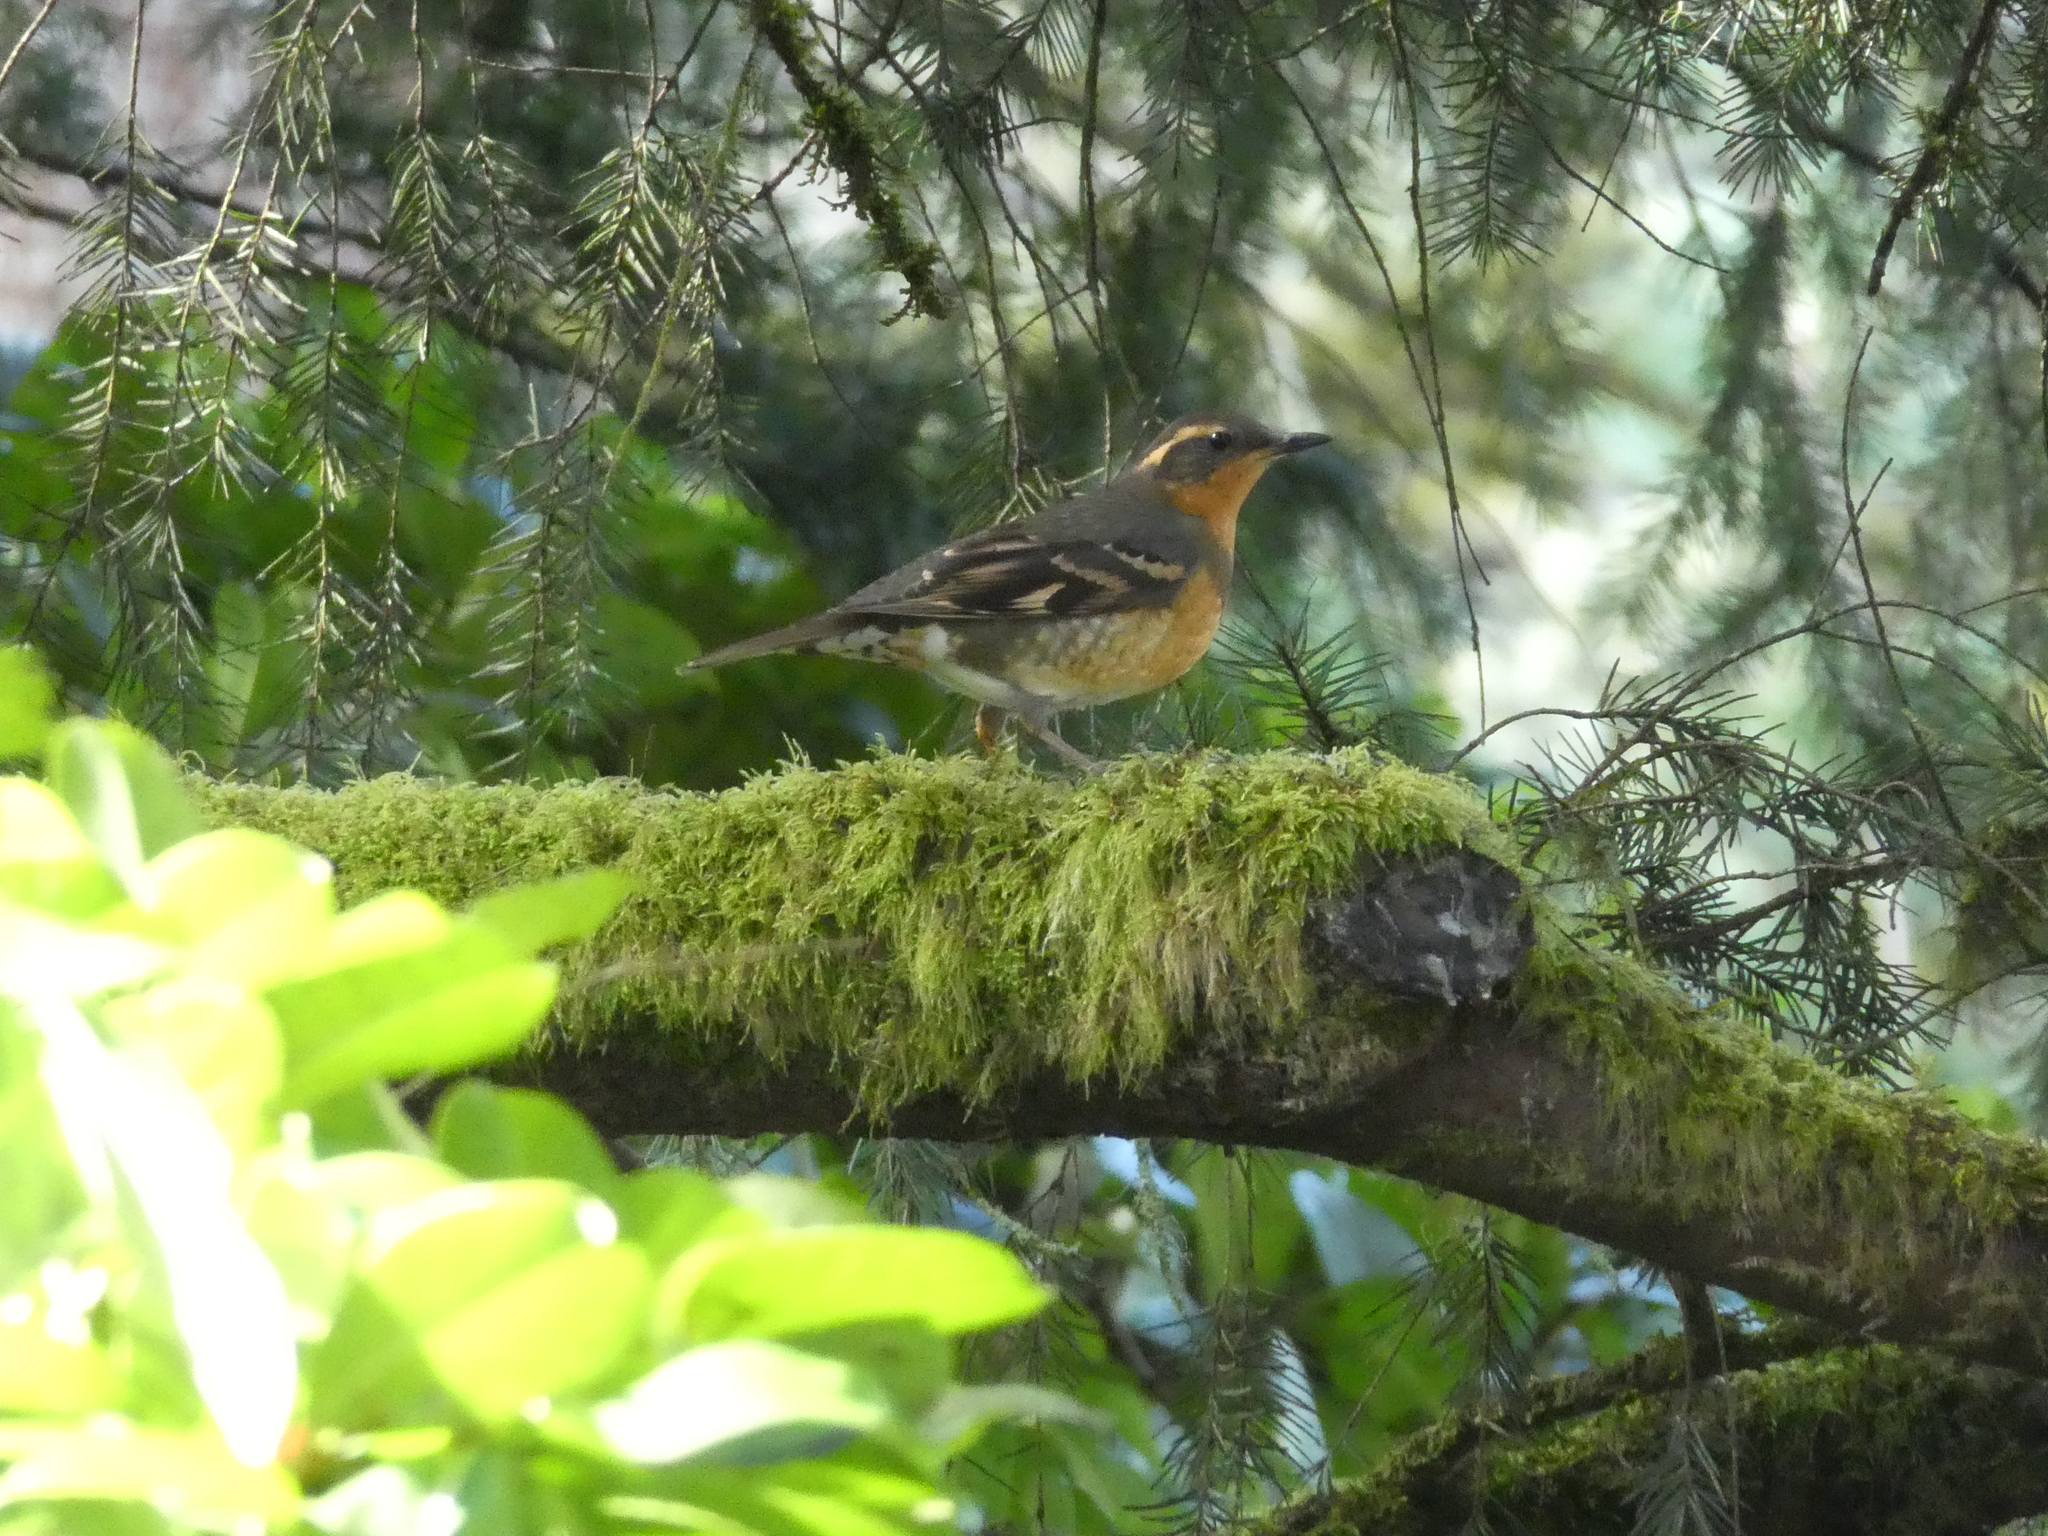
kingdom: Animalia
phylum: Chordata
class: Aves
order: Passeriformes
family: Turdidae
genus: Ixoreus
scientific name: Ixoreus naevius
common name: Varied thrush
